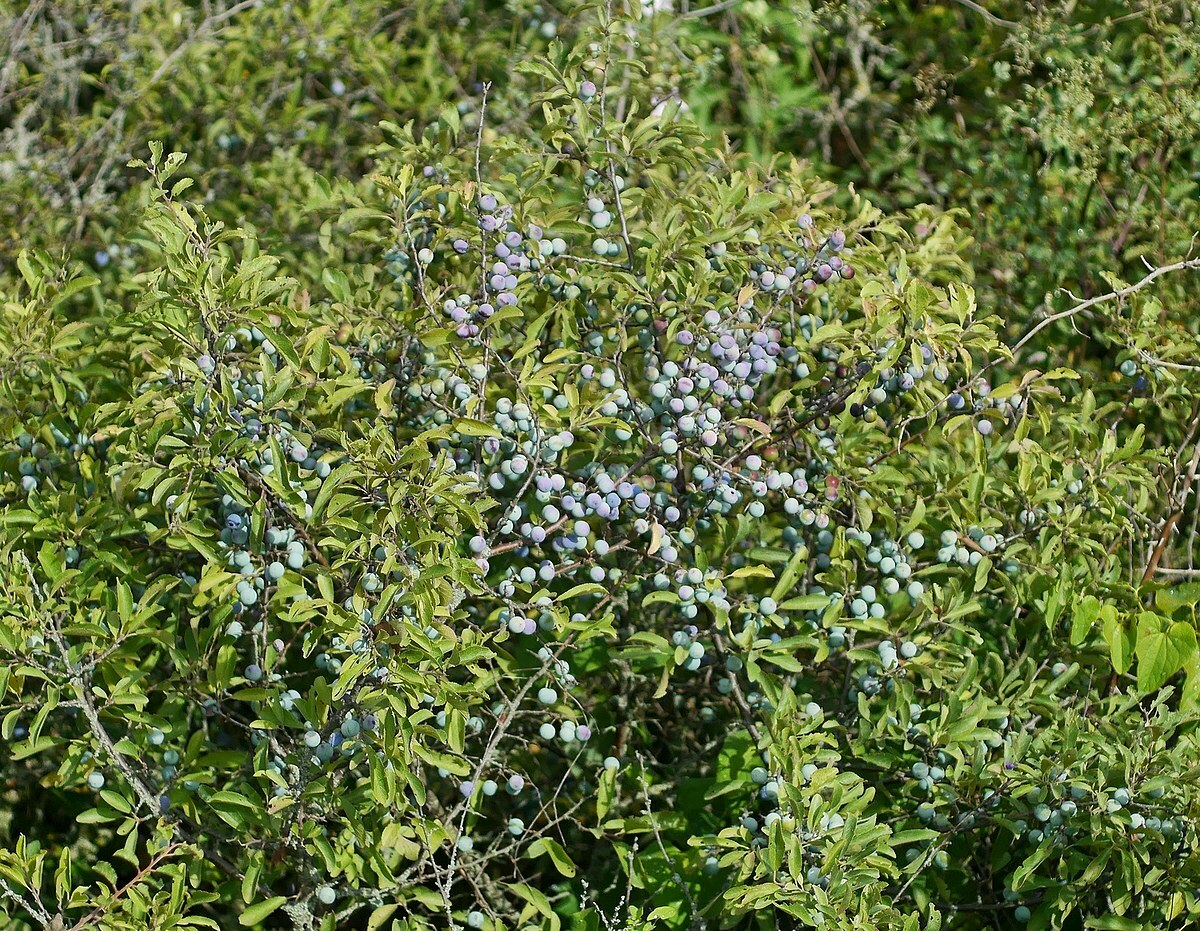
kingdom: Plantae
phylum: Tracheophyta
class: Magnoliopsida
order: Rosales
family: Rosaceae
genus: Prunus
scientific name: Prunus spinosa
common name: Blackthorn
